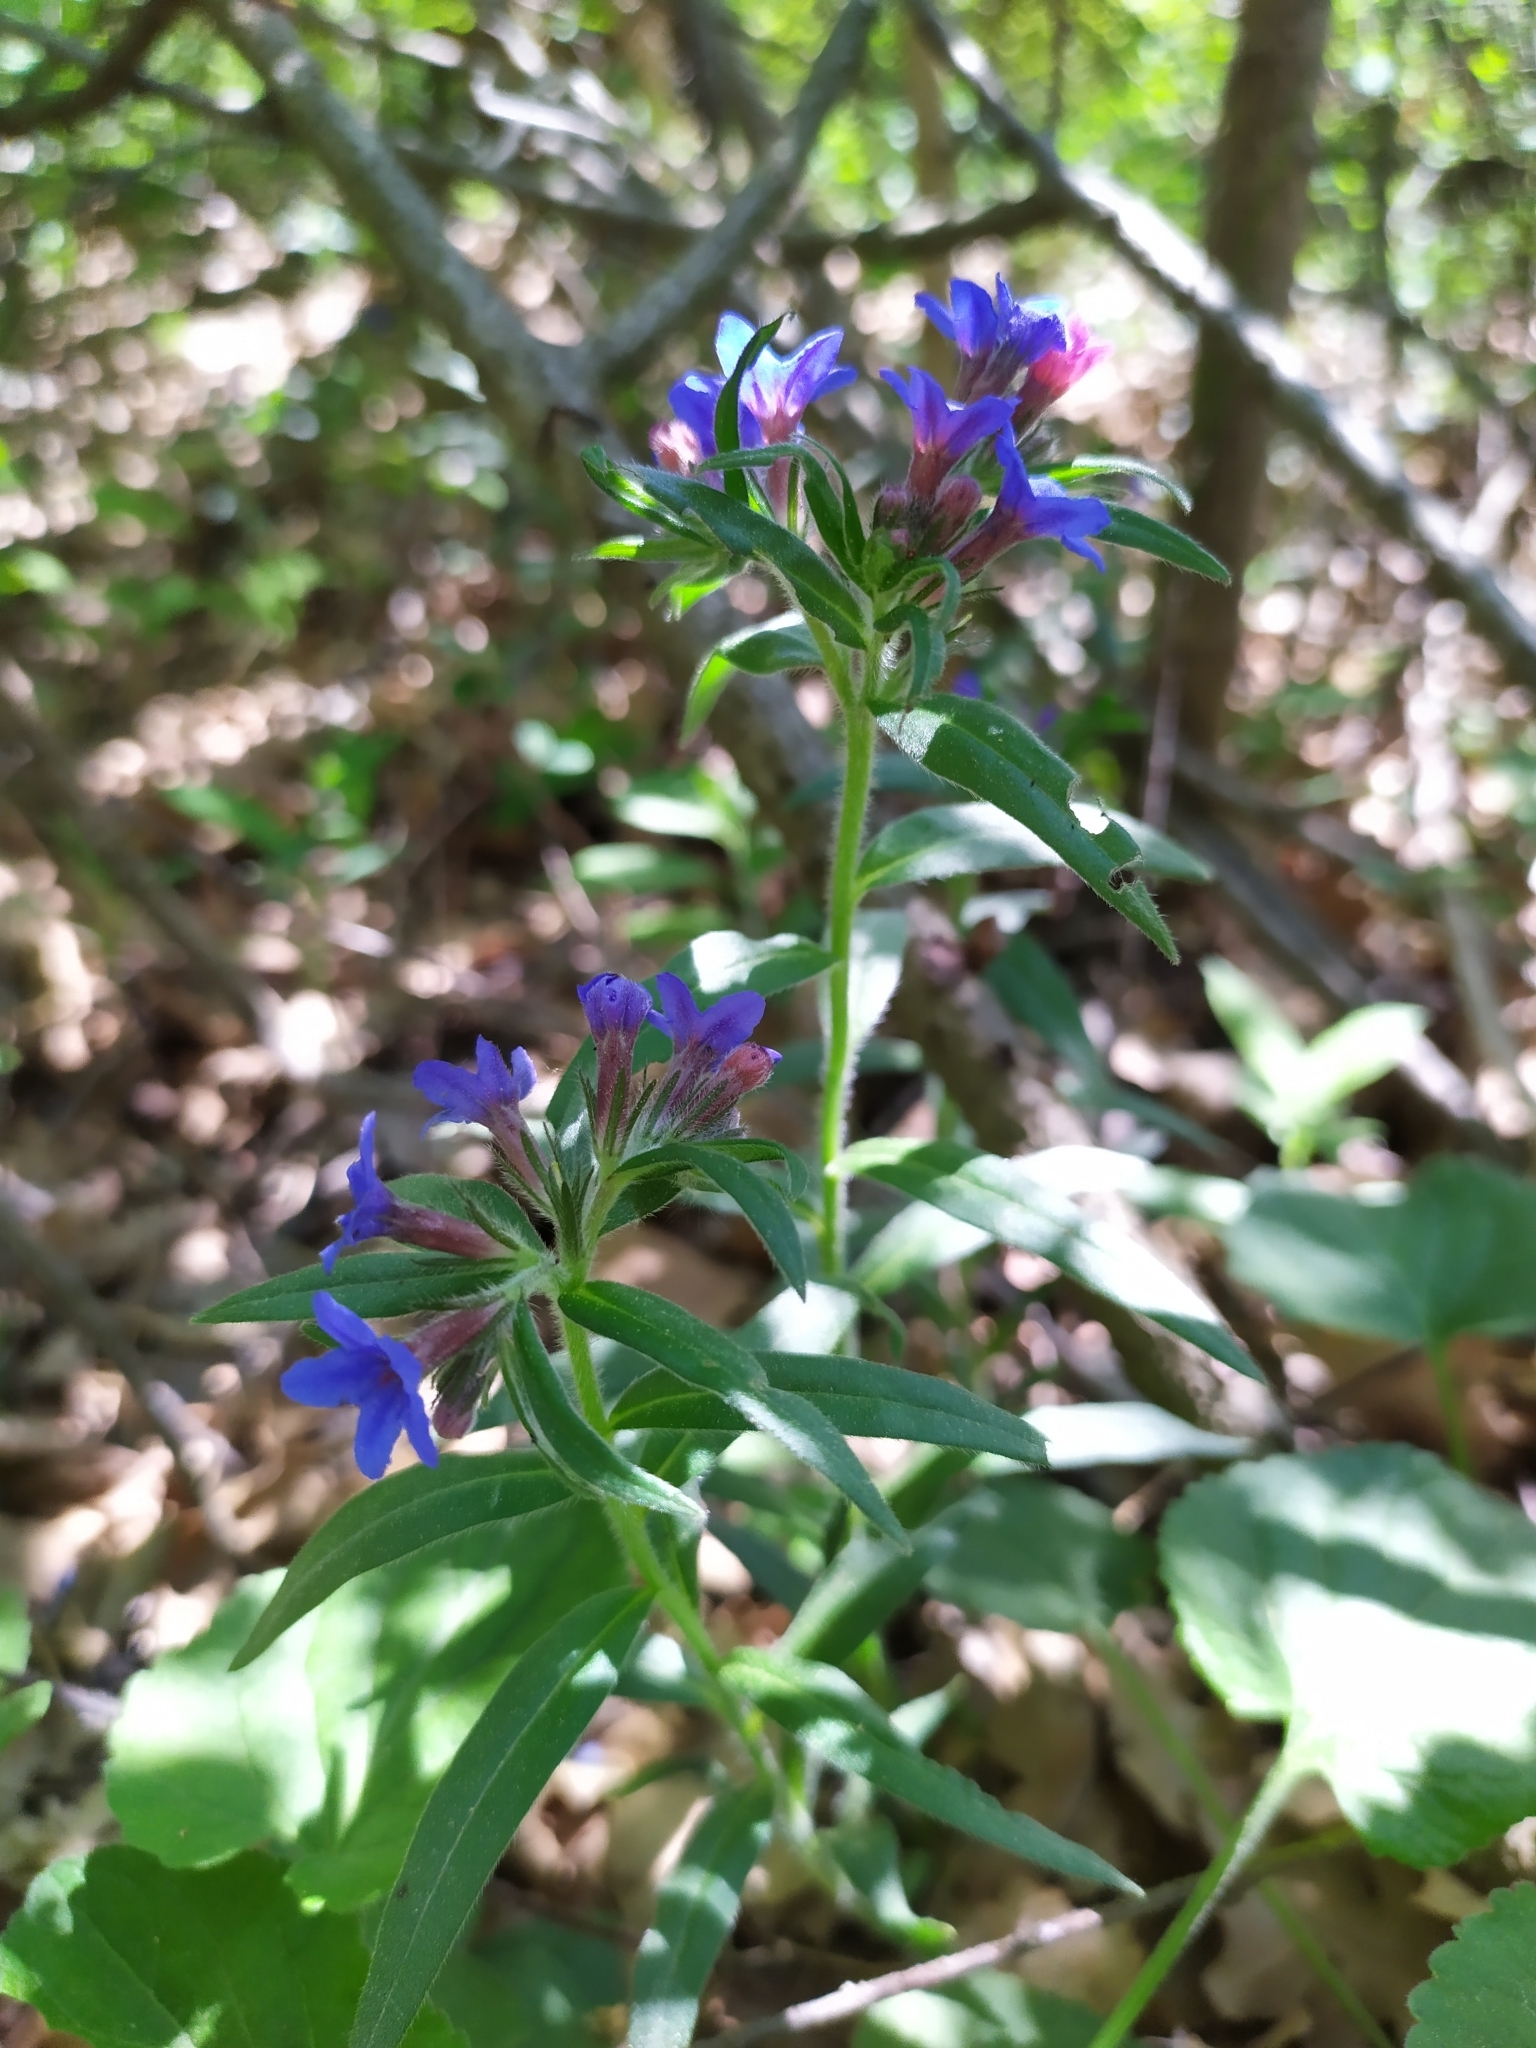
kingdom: Plantae
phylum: Tracheophyta
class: Magnoliopsida
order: Boraginales
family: Boraginaceae
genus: Aegonychon
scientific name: Aegonychon purpurocaeruleum
